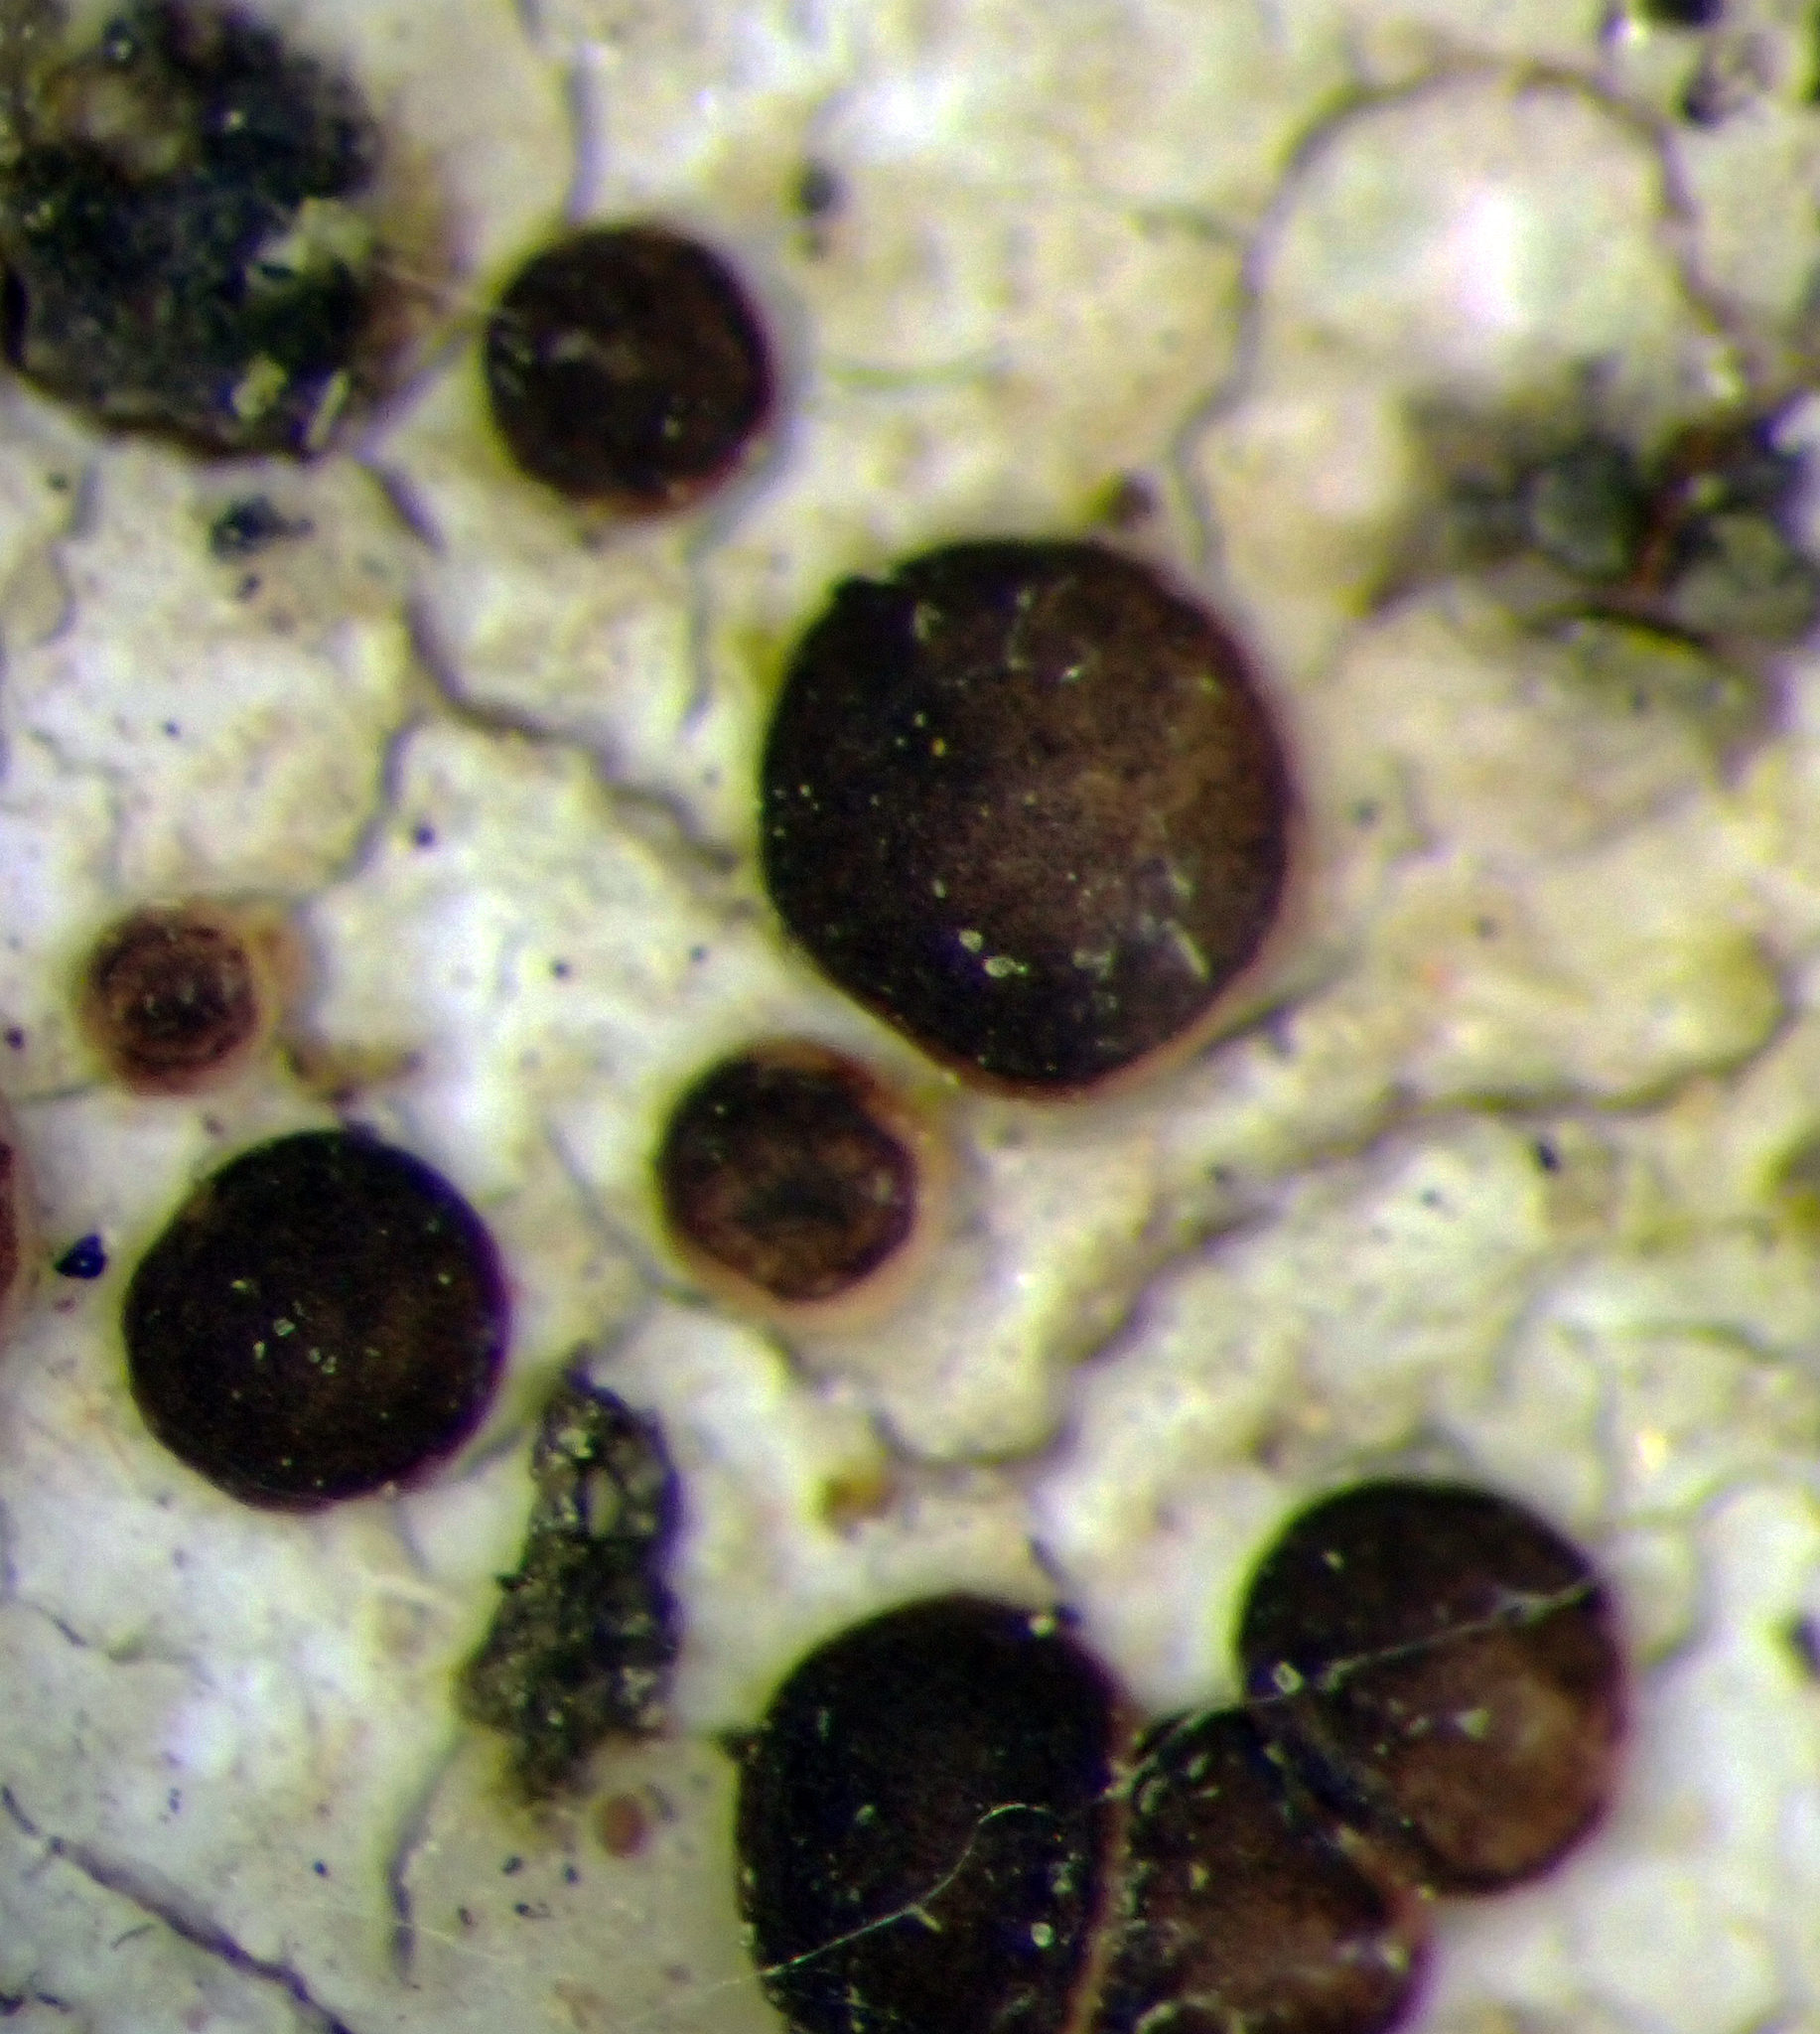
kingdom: Fungi
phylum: Ascomycota
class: Lecanoromycetes
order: Lecanorales
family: Ramalinaceae
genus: Bacidia
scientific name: Bacidia wellingtonii
